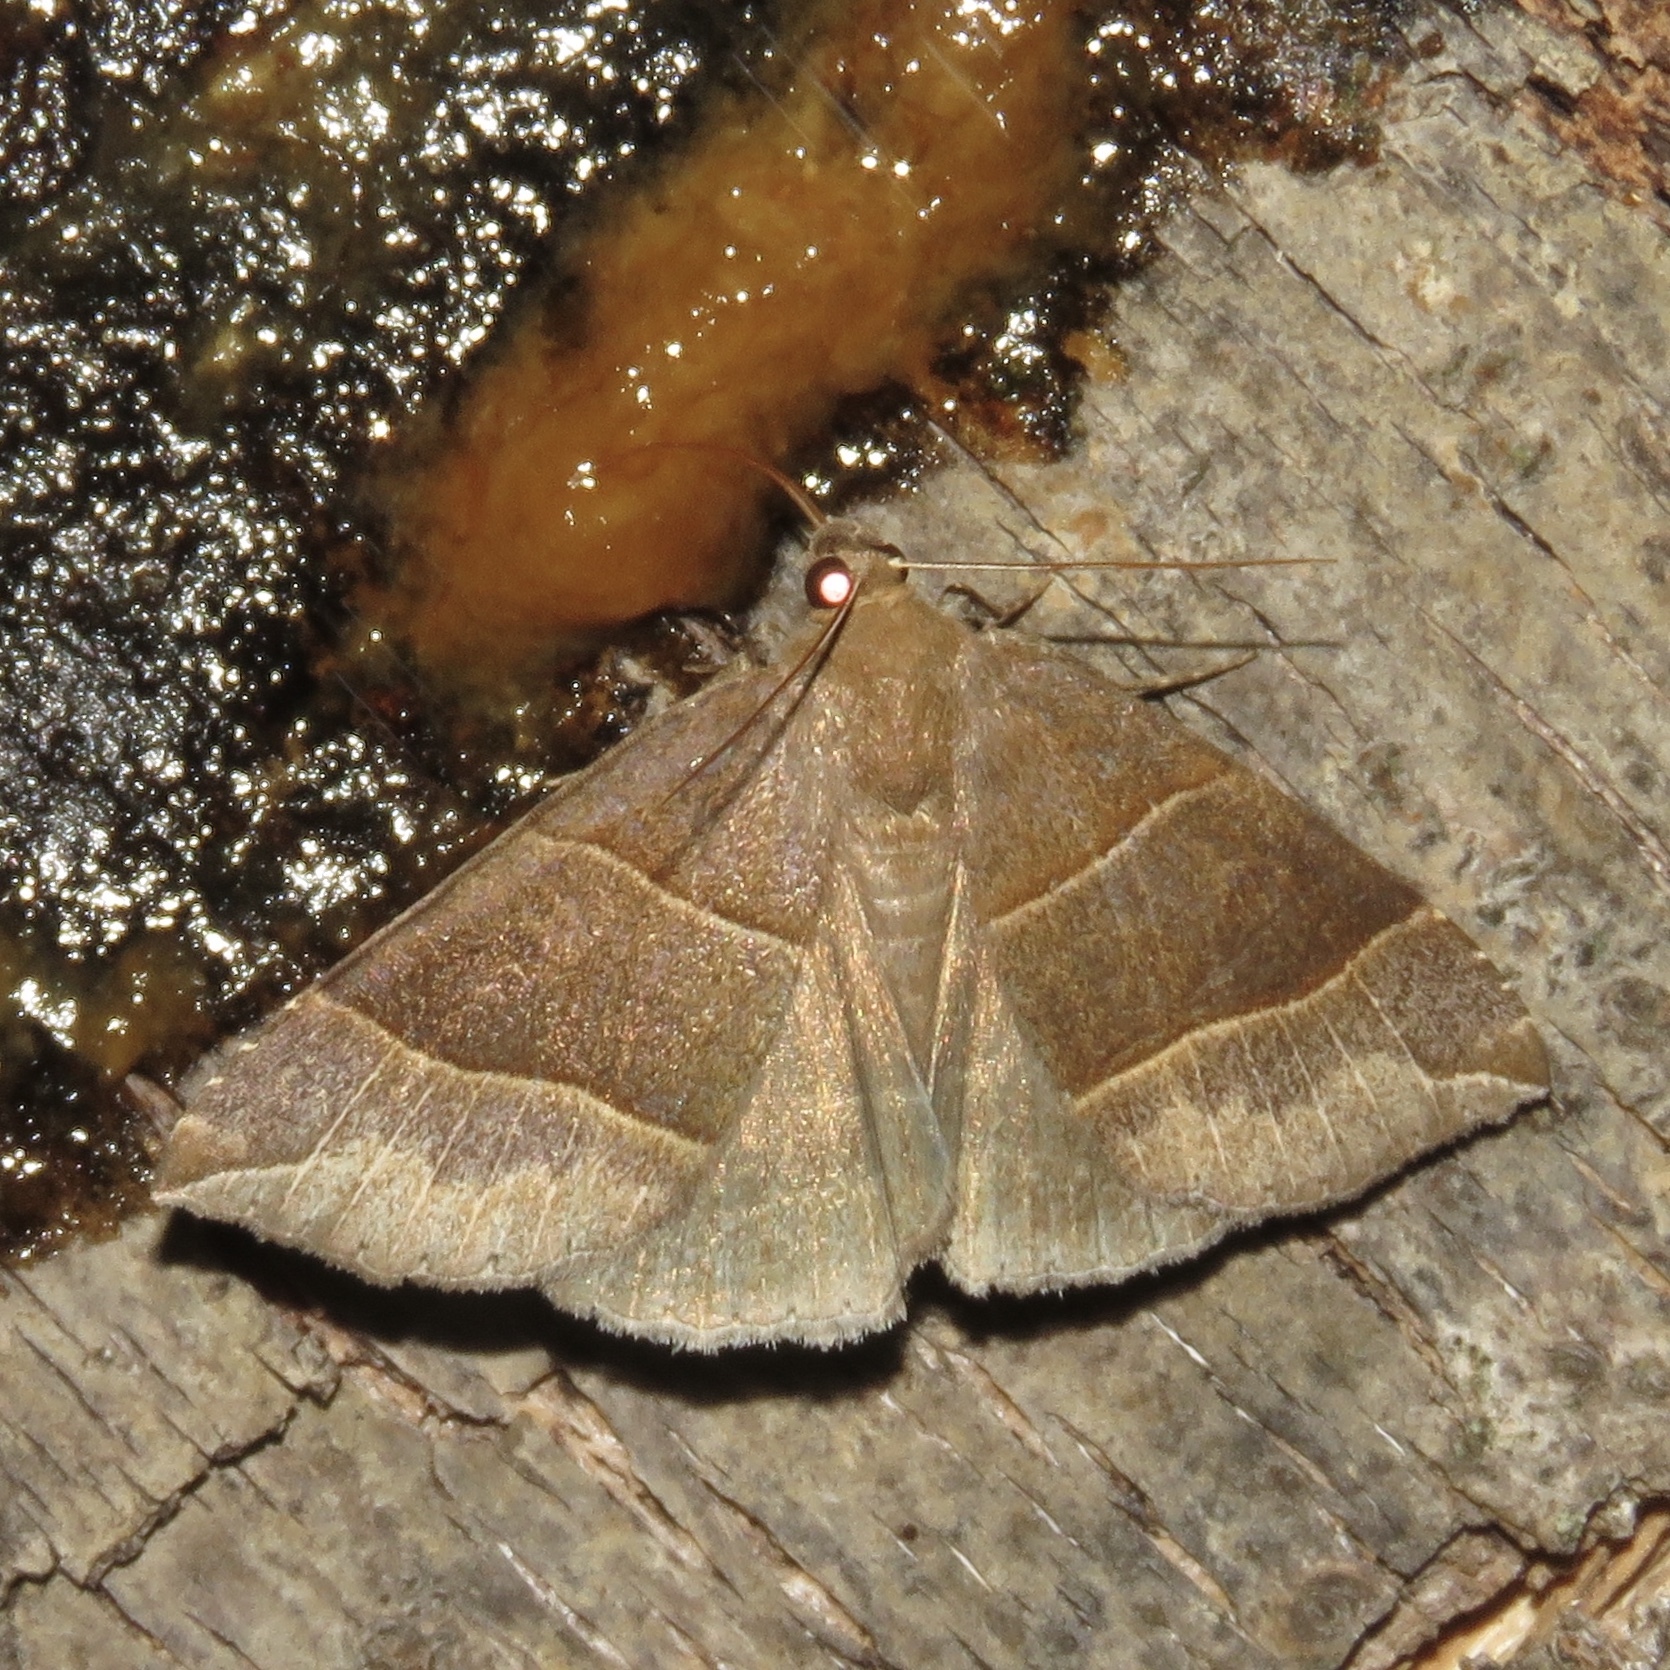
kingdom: Animalia
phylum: Arthropoda
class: Insecta
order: Lepidoptera
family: Erebidae
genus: Parallelia
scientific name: Parallelia bistriaris
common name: Maple looper moth
